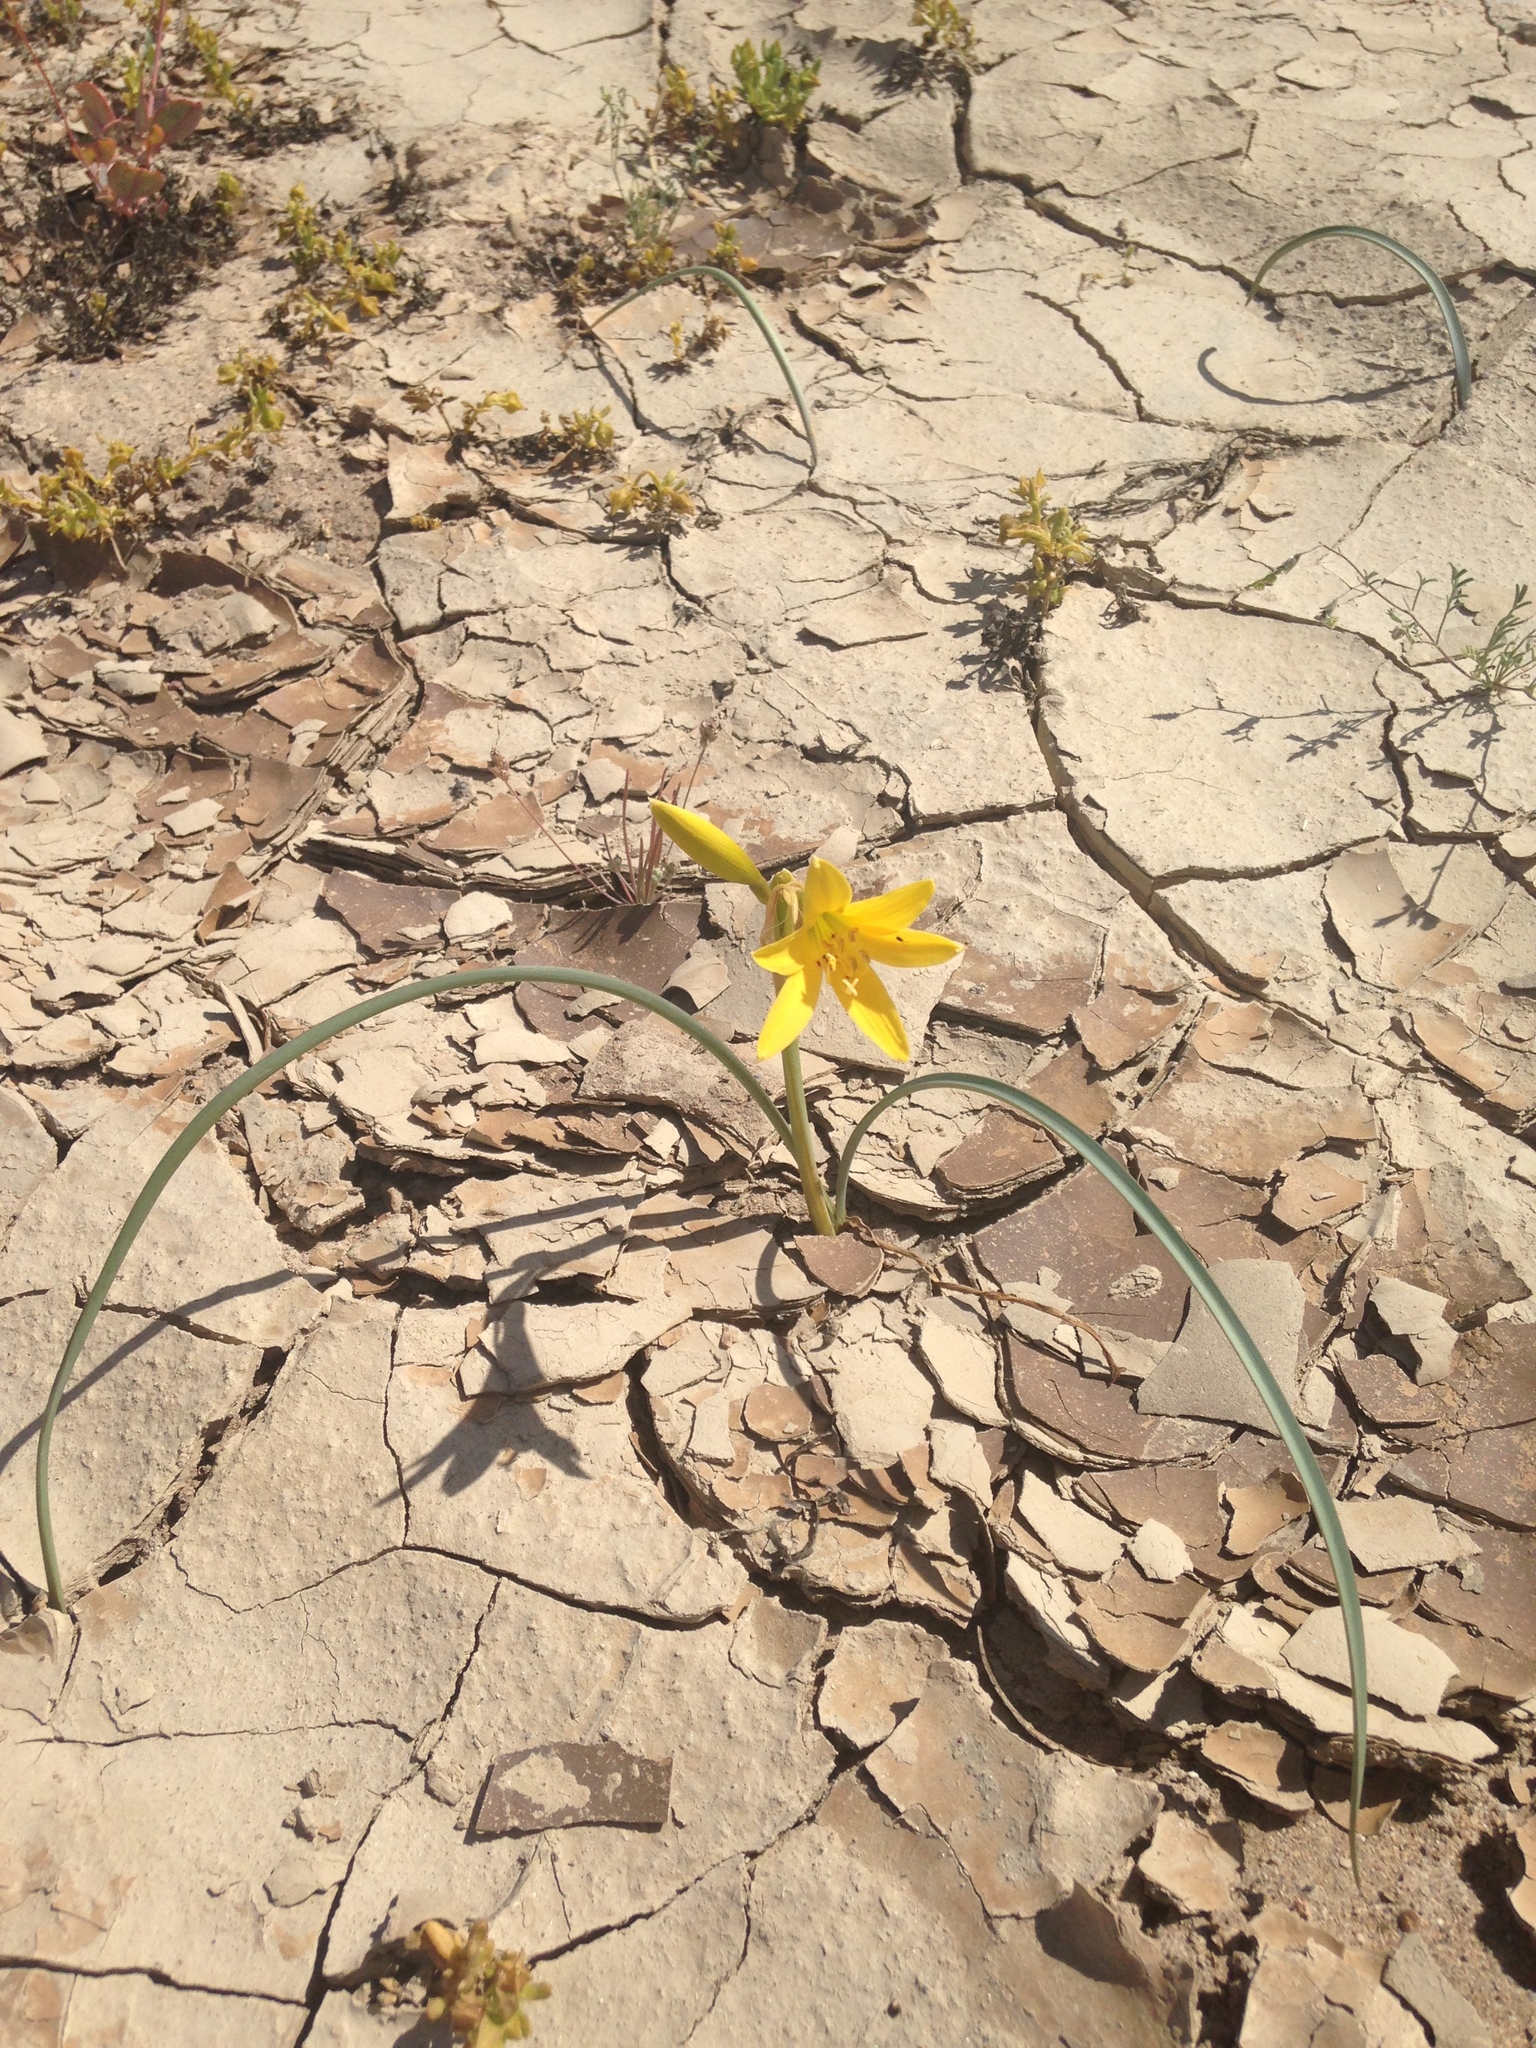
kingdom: Plantae
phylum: Tracheophyta
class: Liliopsida
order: Asparagales
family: Amaryllidaceae
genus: Zephyranthes
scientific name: Zephyranthes bagnoldii
